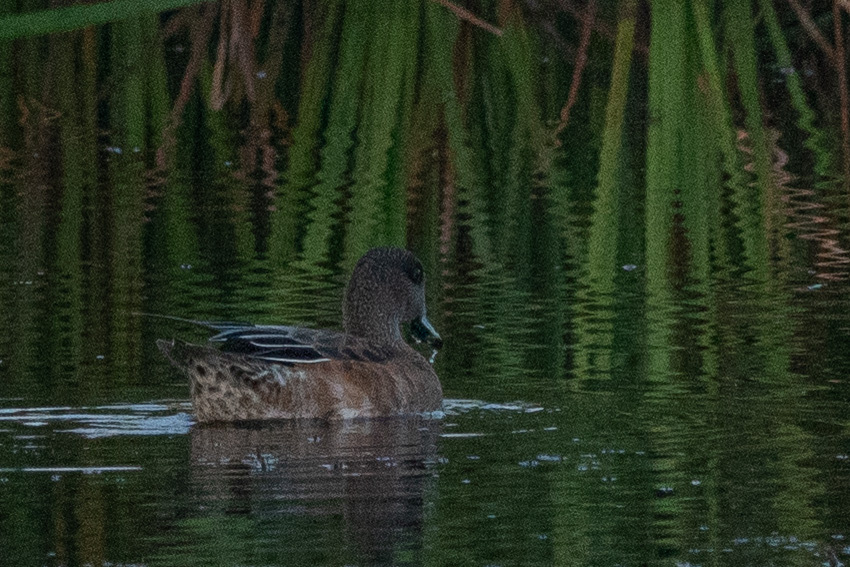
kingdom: Animalia
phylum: Chordata
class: Aves
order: Anseriformes
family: Anatidae
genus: Mareca
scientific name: Mareca americana
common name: American wigeon
